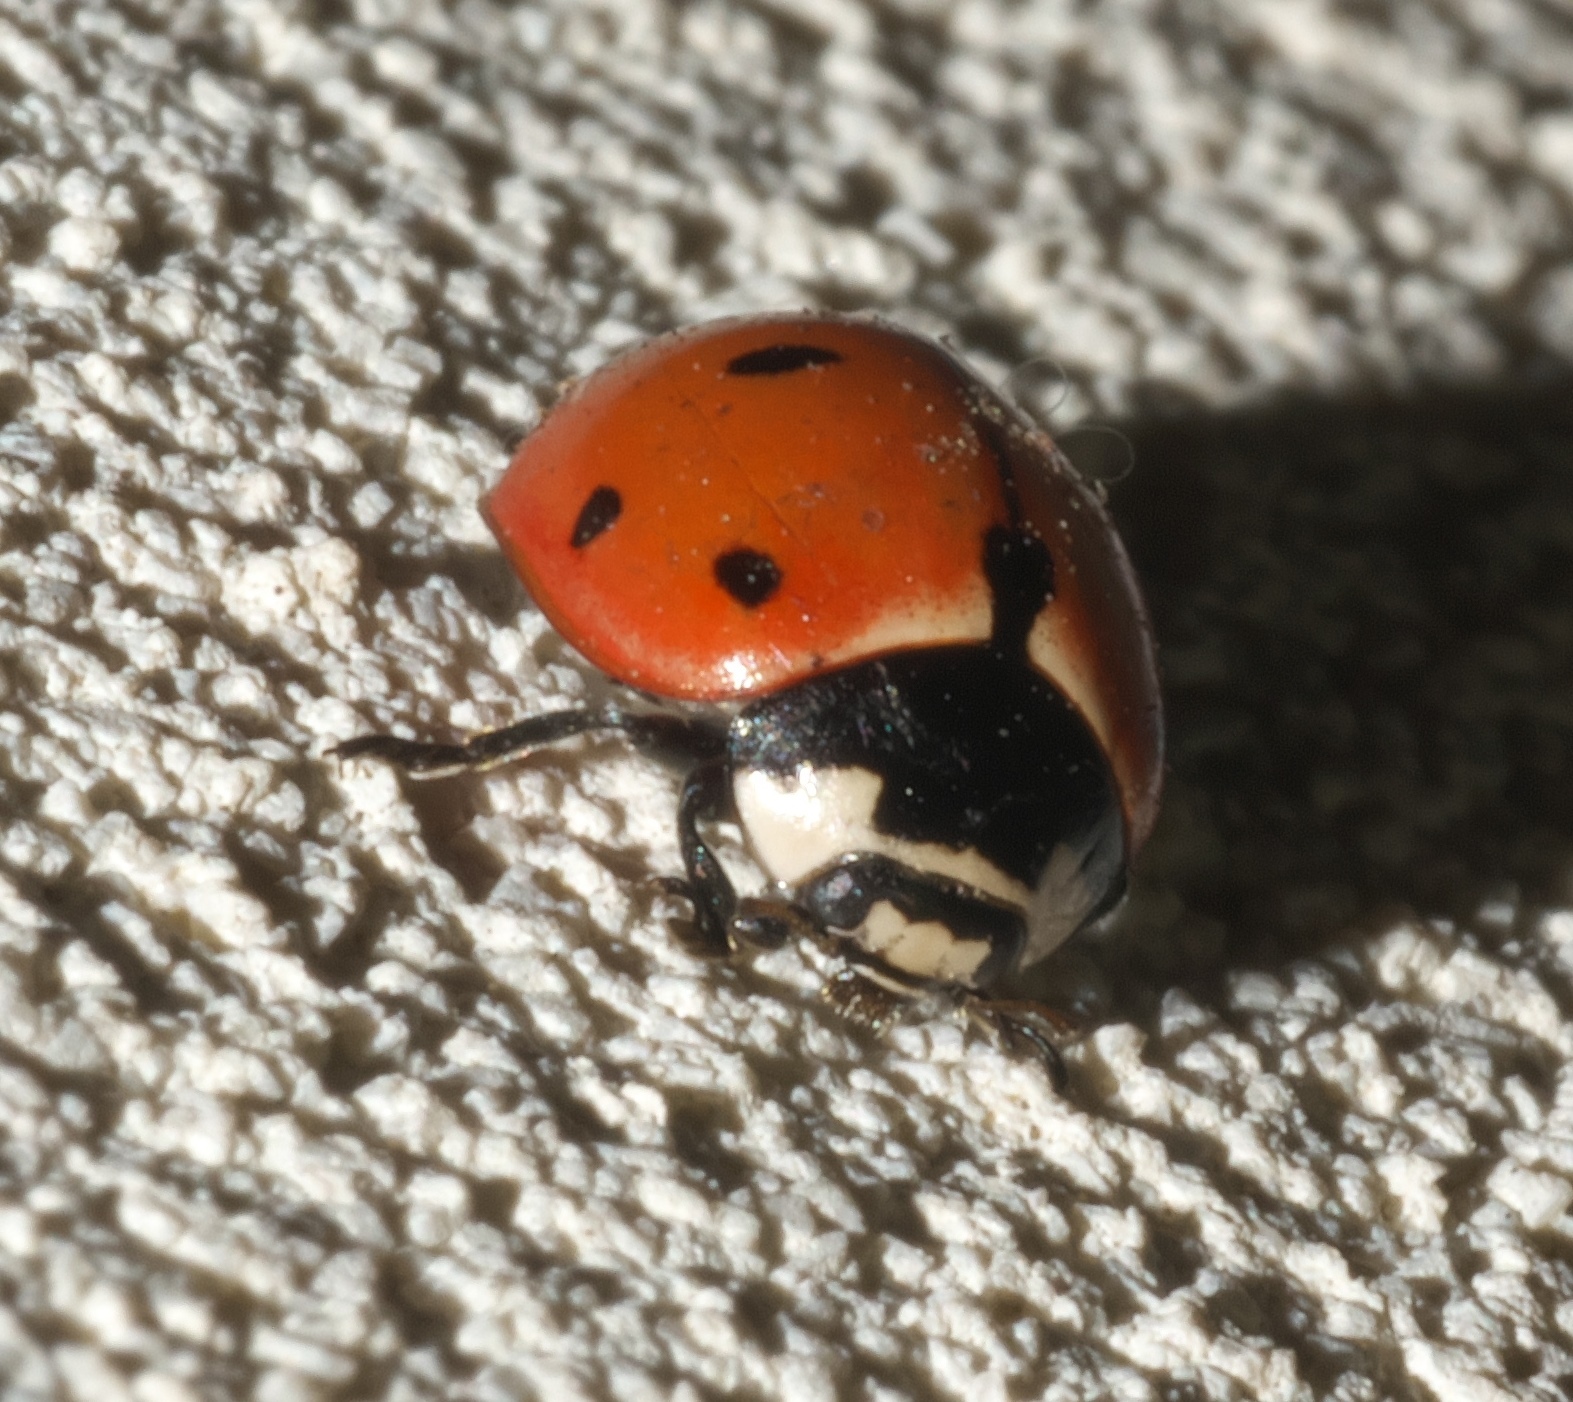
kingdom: Animalia
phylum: Arthropoda
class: Insecta
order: Coleoptera
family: Coccinellidae
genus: Coccinella
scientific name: Coccinella novemnotata
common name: Nine-spotted lady beetle
